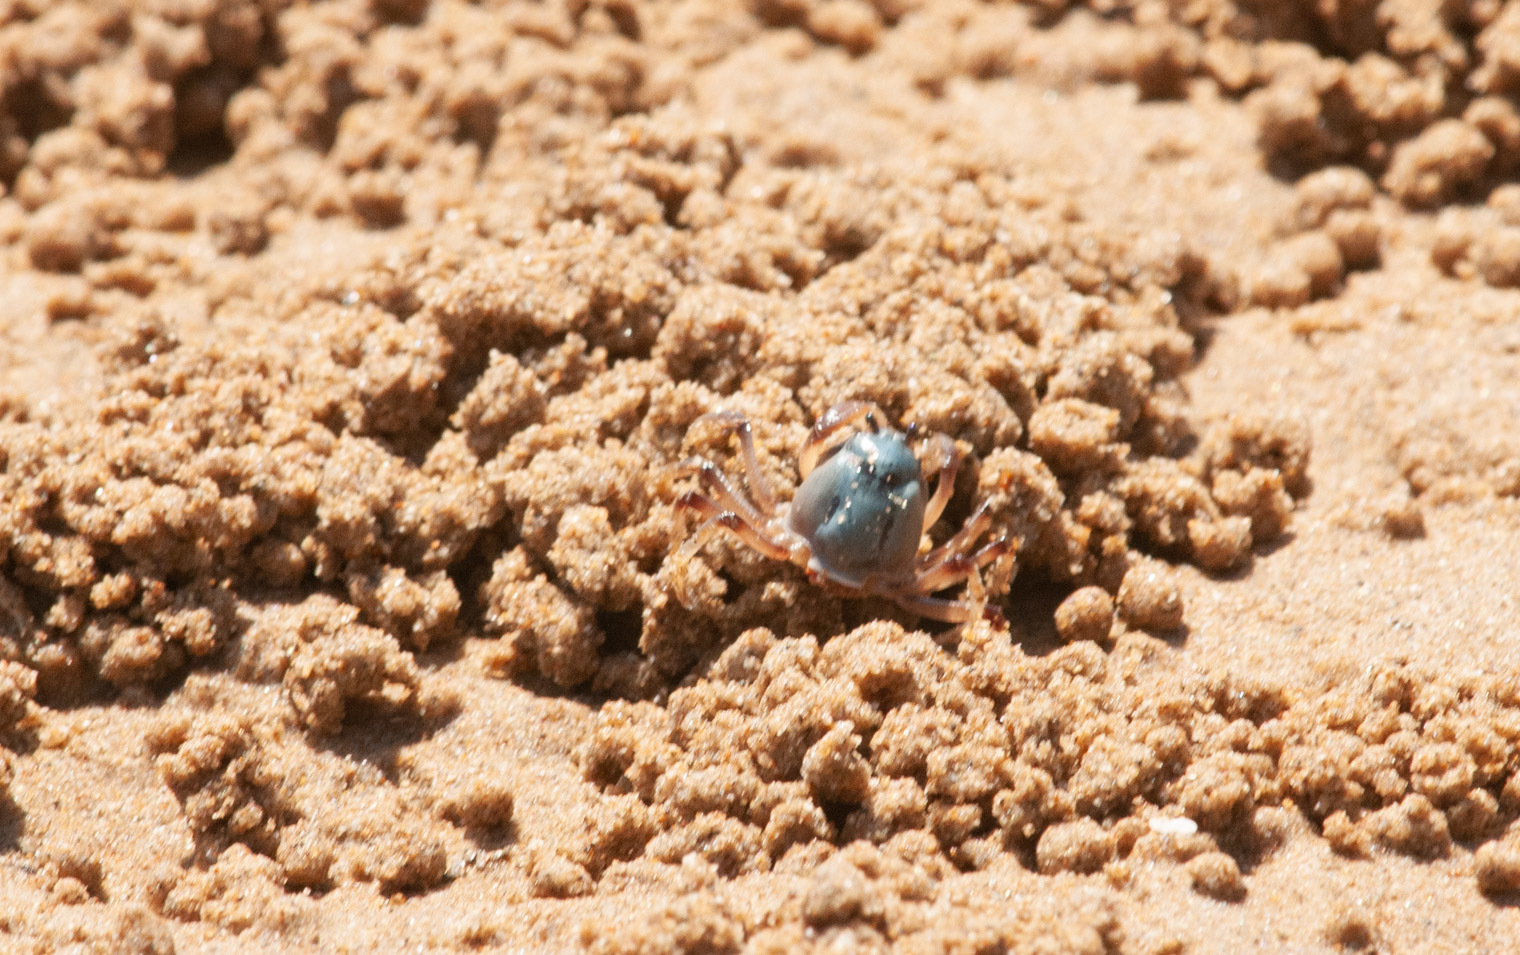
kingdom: Animalia
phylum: Arthropoda
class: Malacostraca
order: Decapoda
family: Mictyridae
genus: Mictyris
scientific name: Mictyris longicarpus
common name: Light-blue soldier crab
